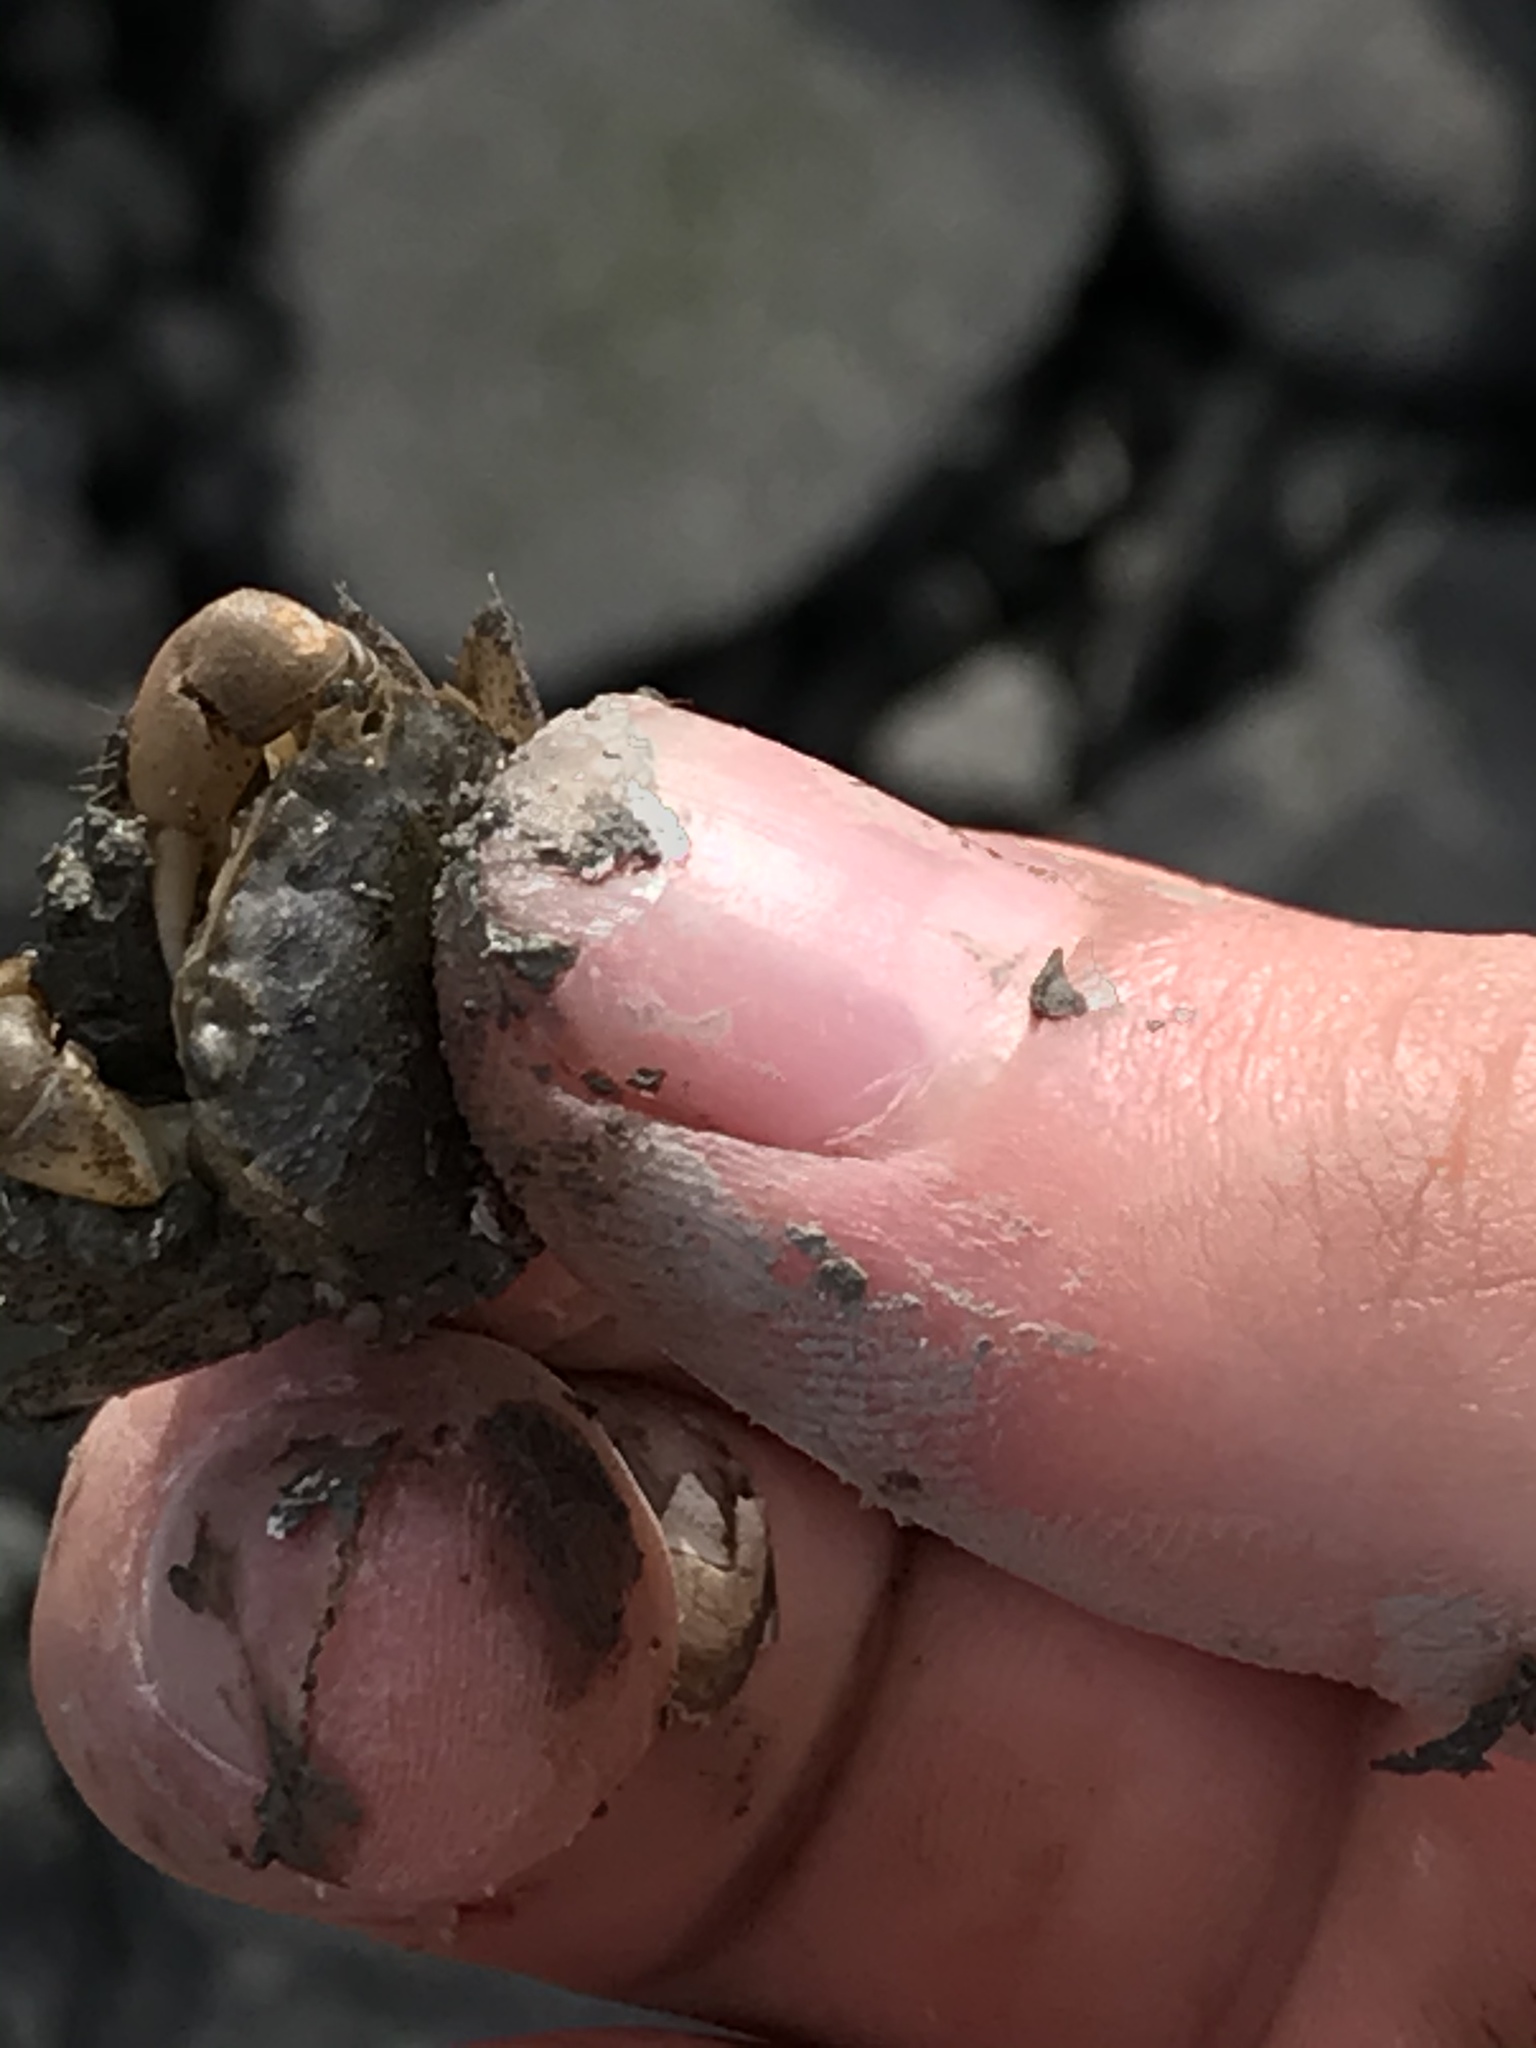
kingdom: Animalia
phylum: Arthropoda
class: Malacostraca
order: Decapoda
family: Varunidae
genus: Hemigrapsus
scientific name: Hemigrapsus oregonensis
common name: Yellow shore crab
